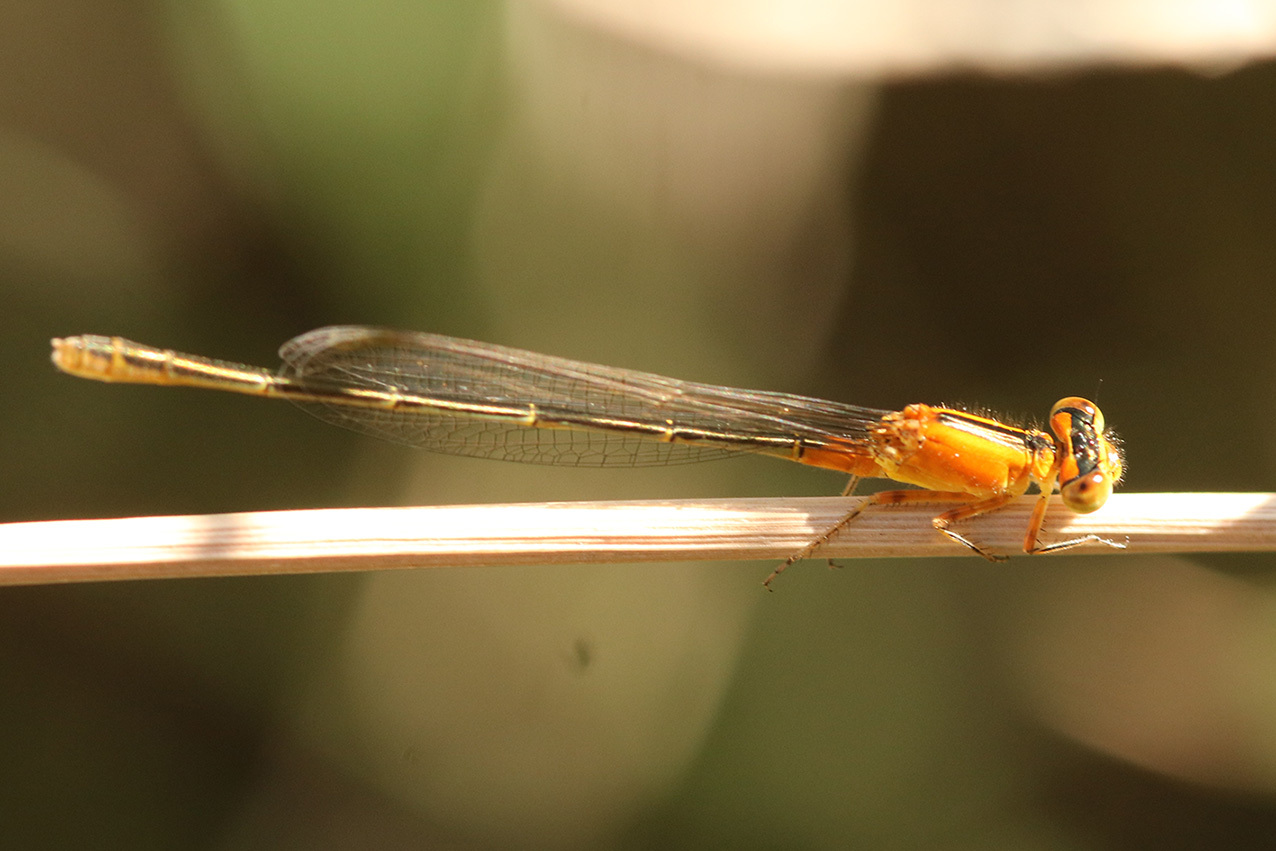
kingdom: Animalia
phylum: Arthropoda
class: Insecta
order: Odonata
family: Coenagrionidae
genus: Ischnura
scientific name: Ischnura fluviatilis
